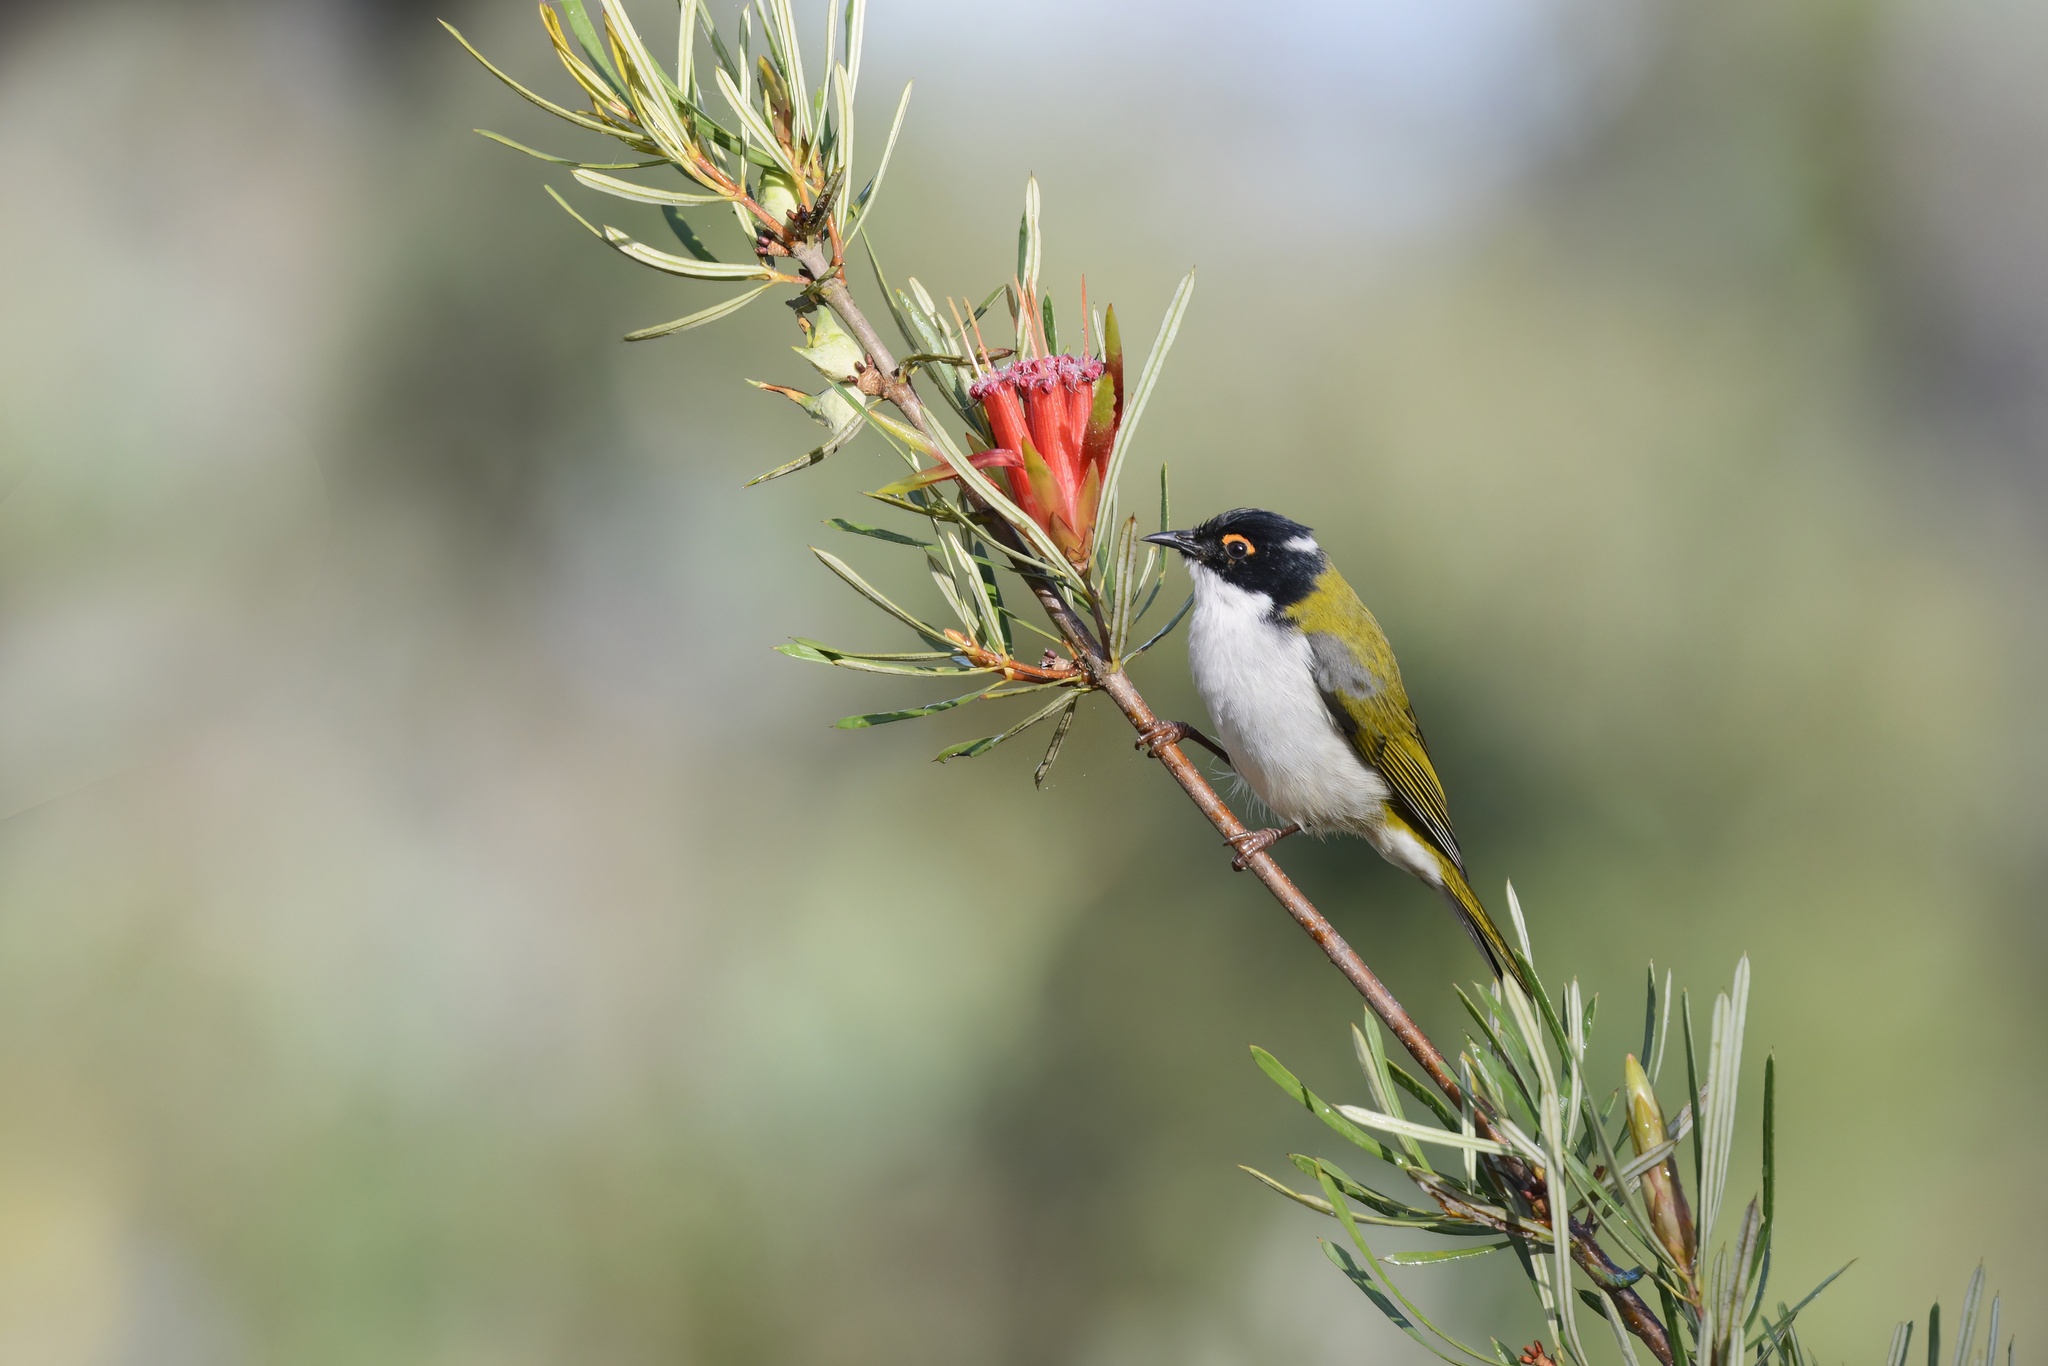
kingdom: Animalia
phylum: Chordata
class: Aves
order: Passeriformes
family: Meliphagidae
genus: Melithreptus
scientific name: Melithreptus lunatus
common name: White-naped honeyeater
